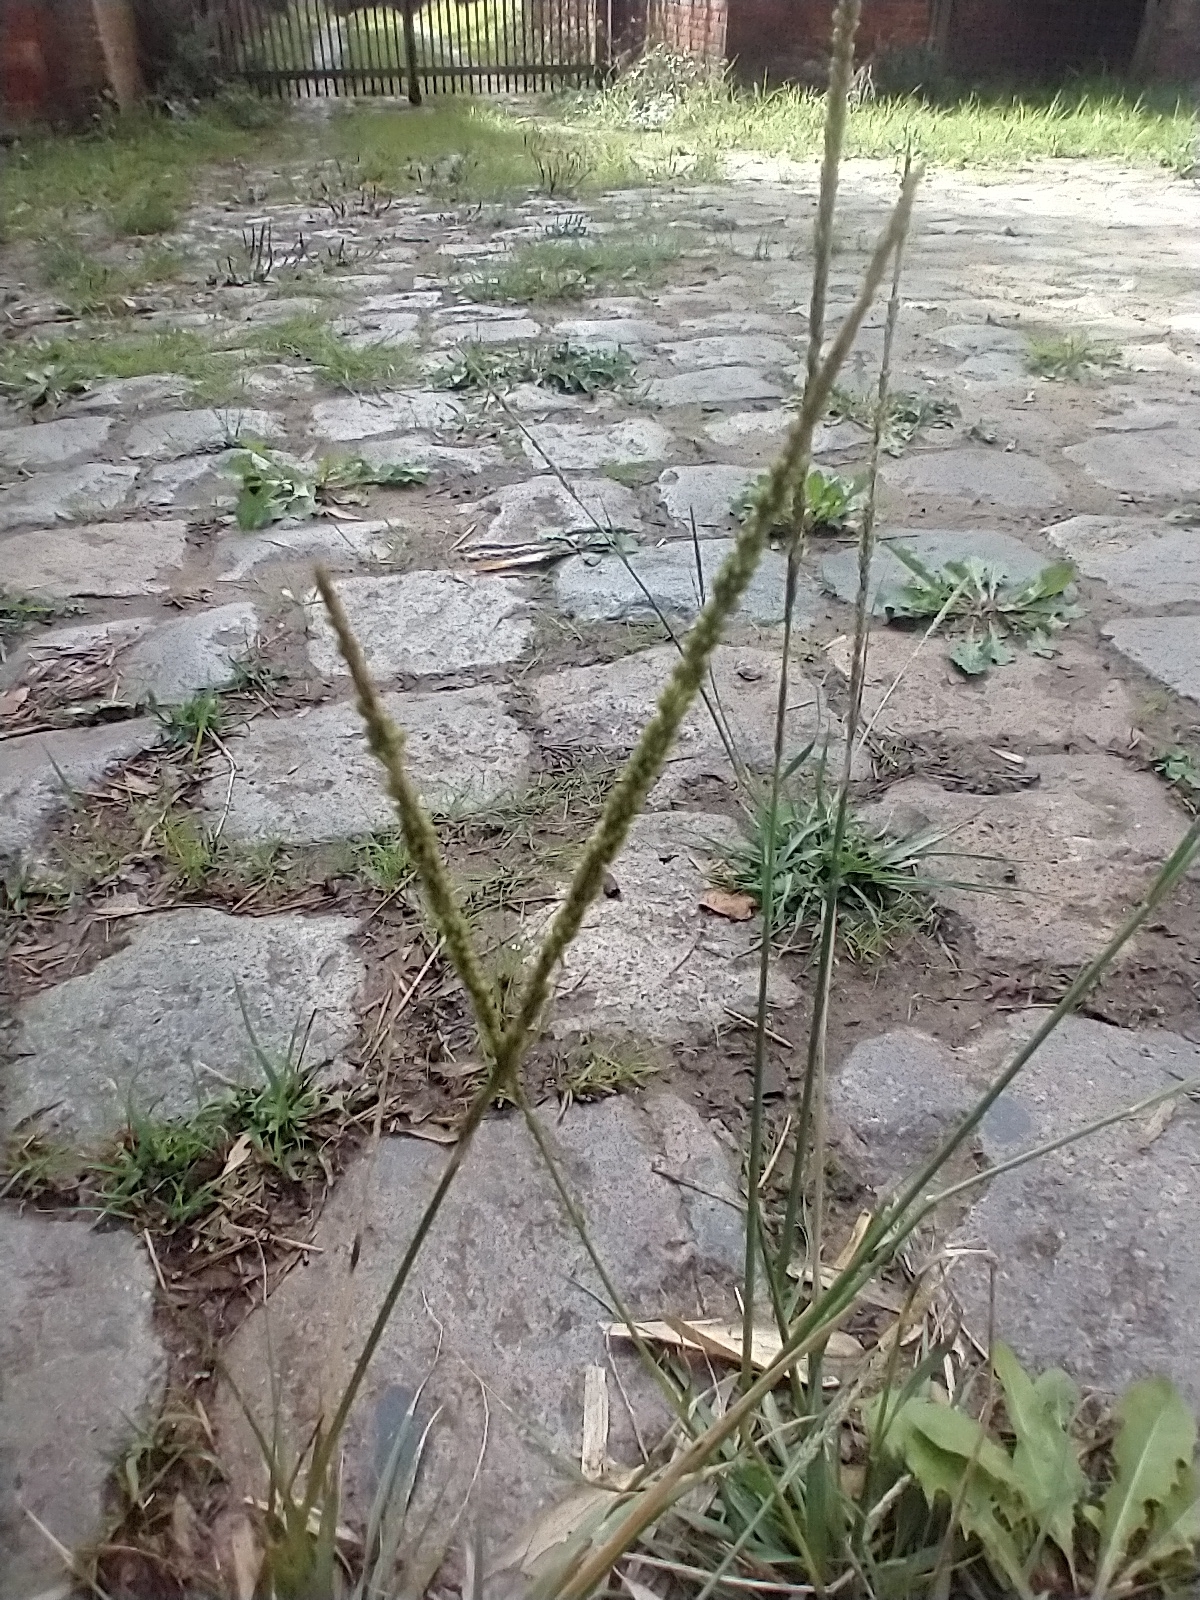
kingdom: Plantae
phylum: Tracheophyta
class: Liliopsida
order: Poales
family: Poaceae
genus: Sporobolus
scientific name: Sporobolus indicus
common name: Smut grass
